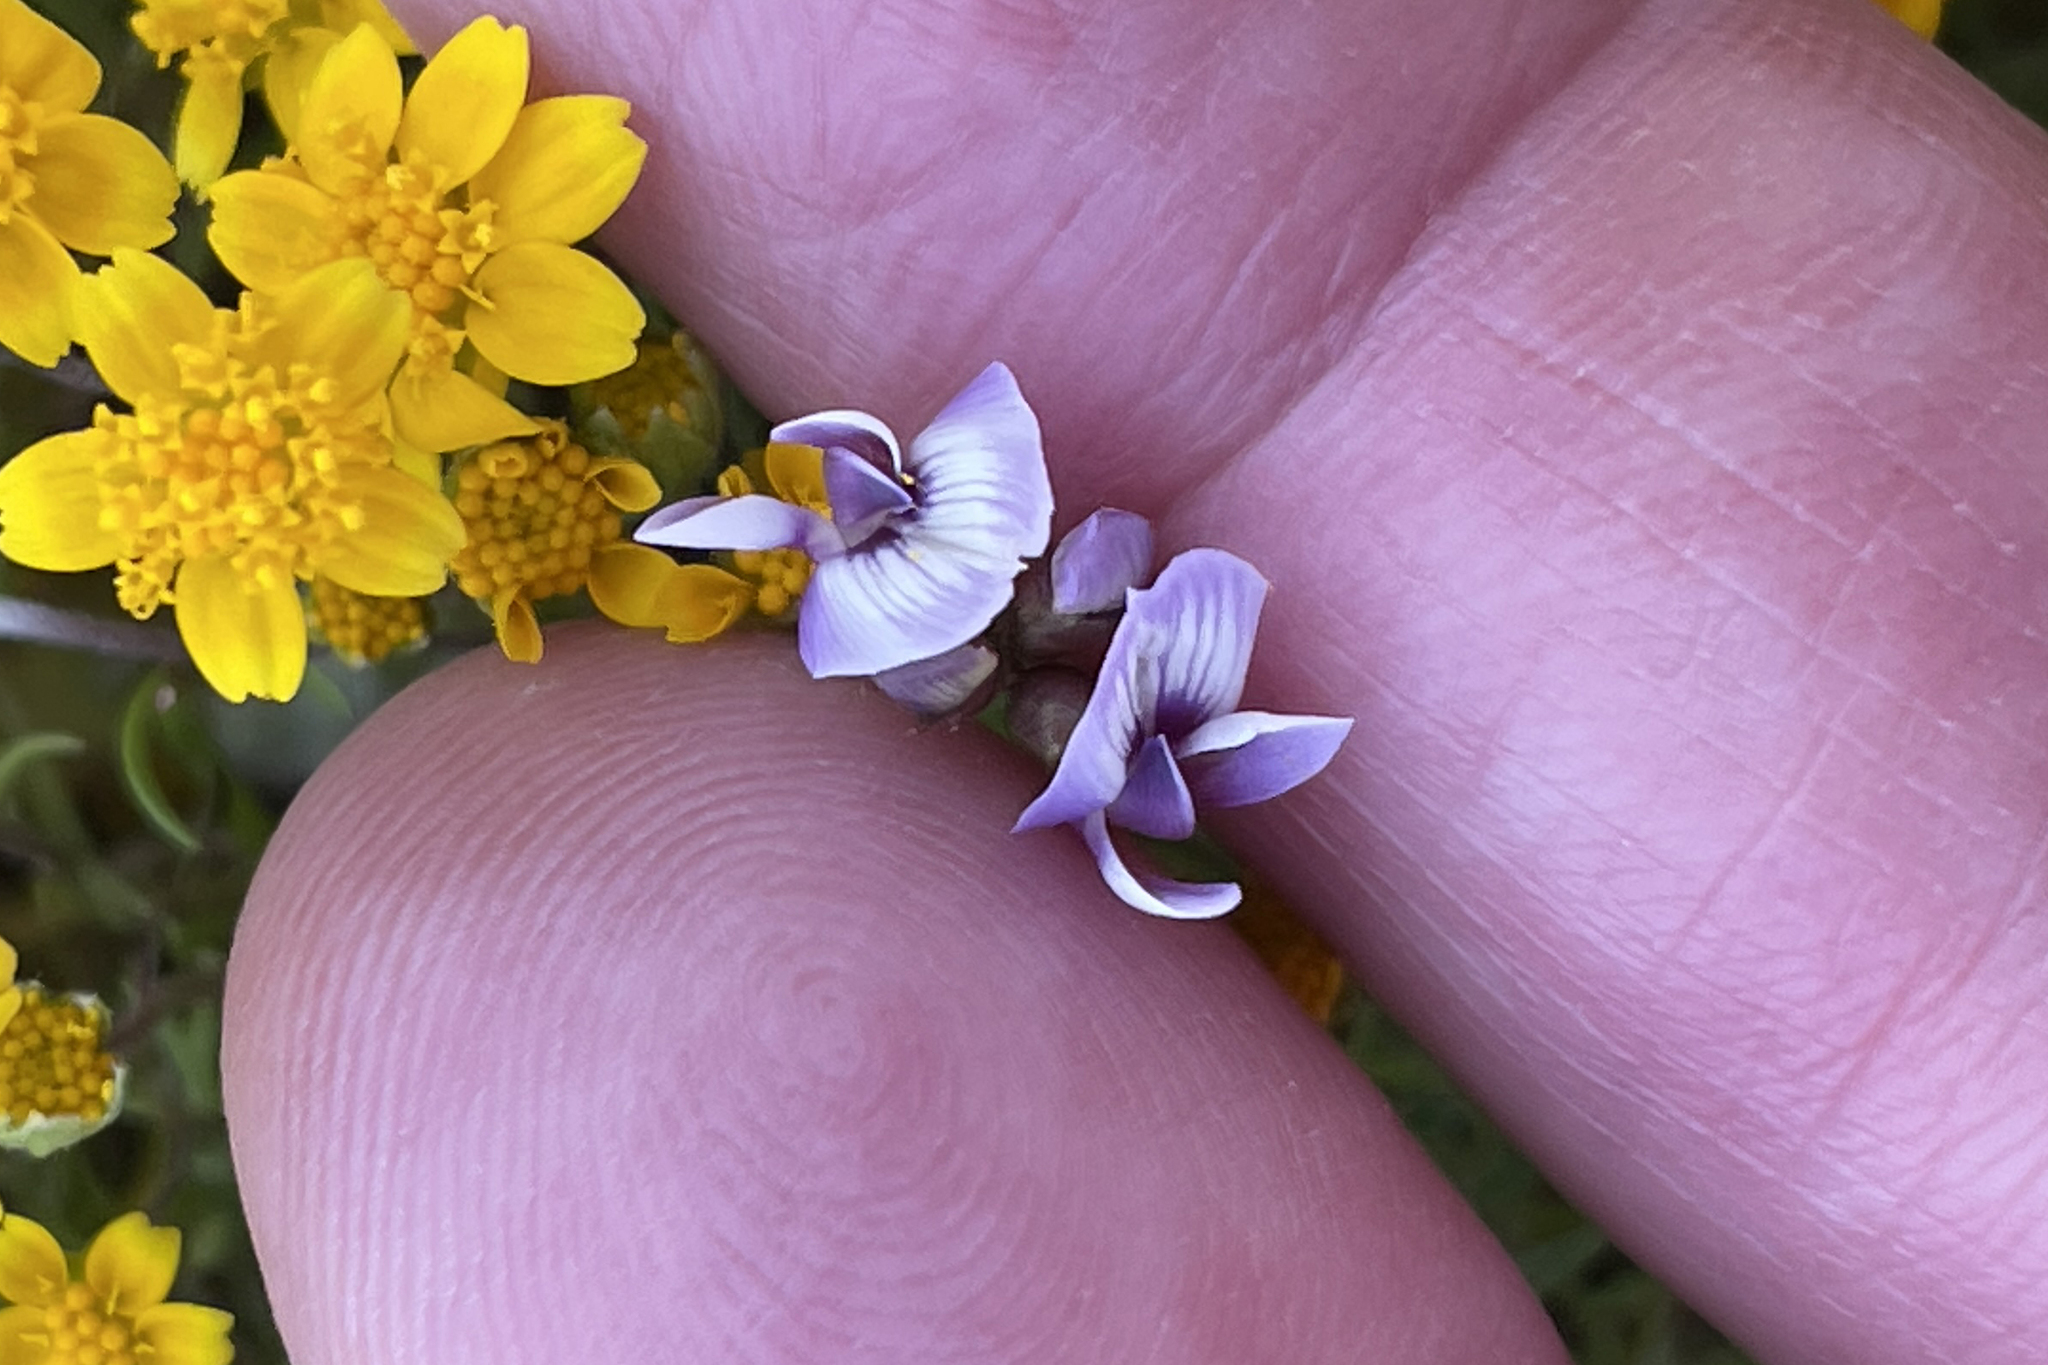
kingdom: Plantae
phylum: Tracheophyta
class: Magnoliopsida
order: Fabales
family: Fabaceae
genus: Astragalus
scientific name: Astragalus tener
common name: Gray slender milkvetch
